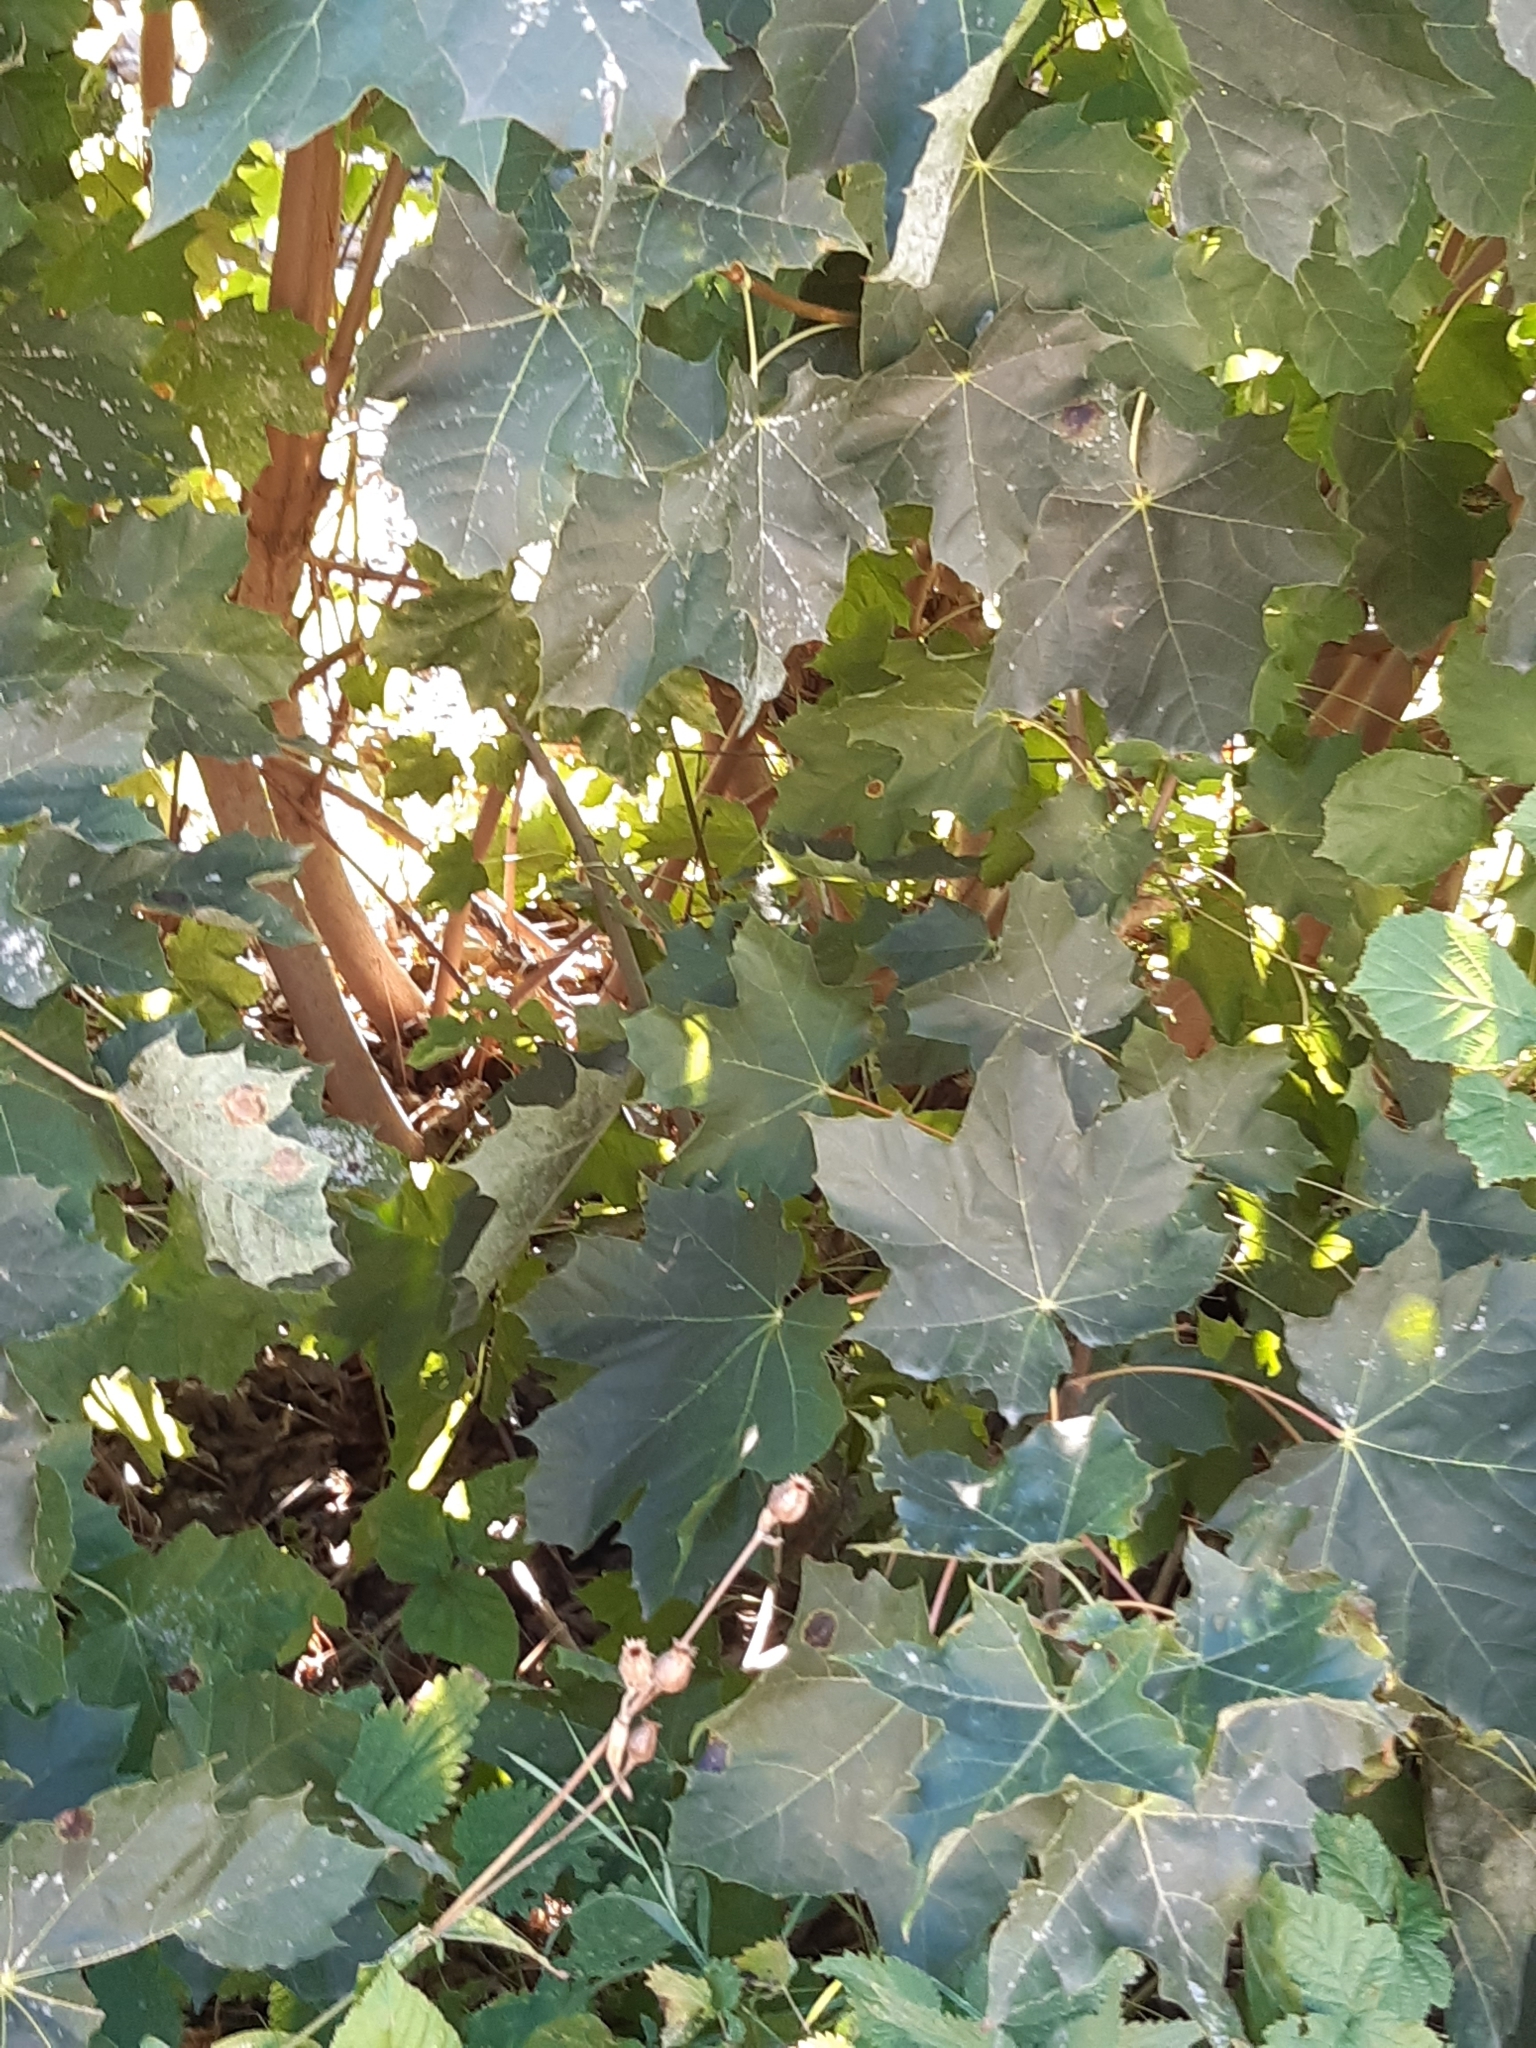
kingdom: Plantae
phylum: Tracheophyta
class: Magnoliopsida
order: Sapindales
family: Sapindaceae
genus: Acer
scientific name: Acer platanoides
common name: Norway maple
